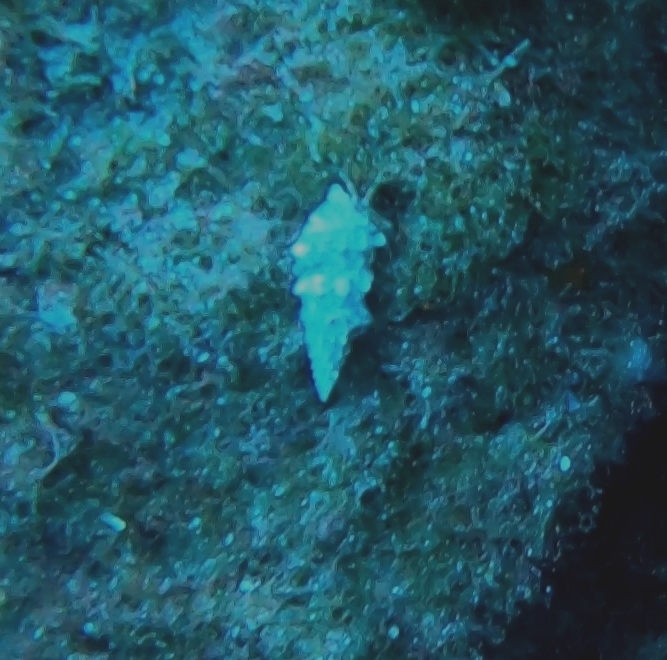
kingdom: Animalia
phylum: Mollusca
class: Gastropoda
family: Cerithiidae
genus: Cerithium
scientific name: Cerithium vulgatum
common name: European cerith
